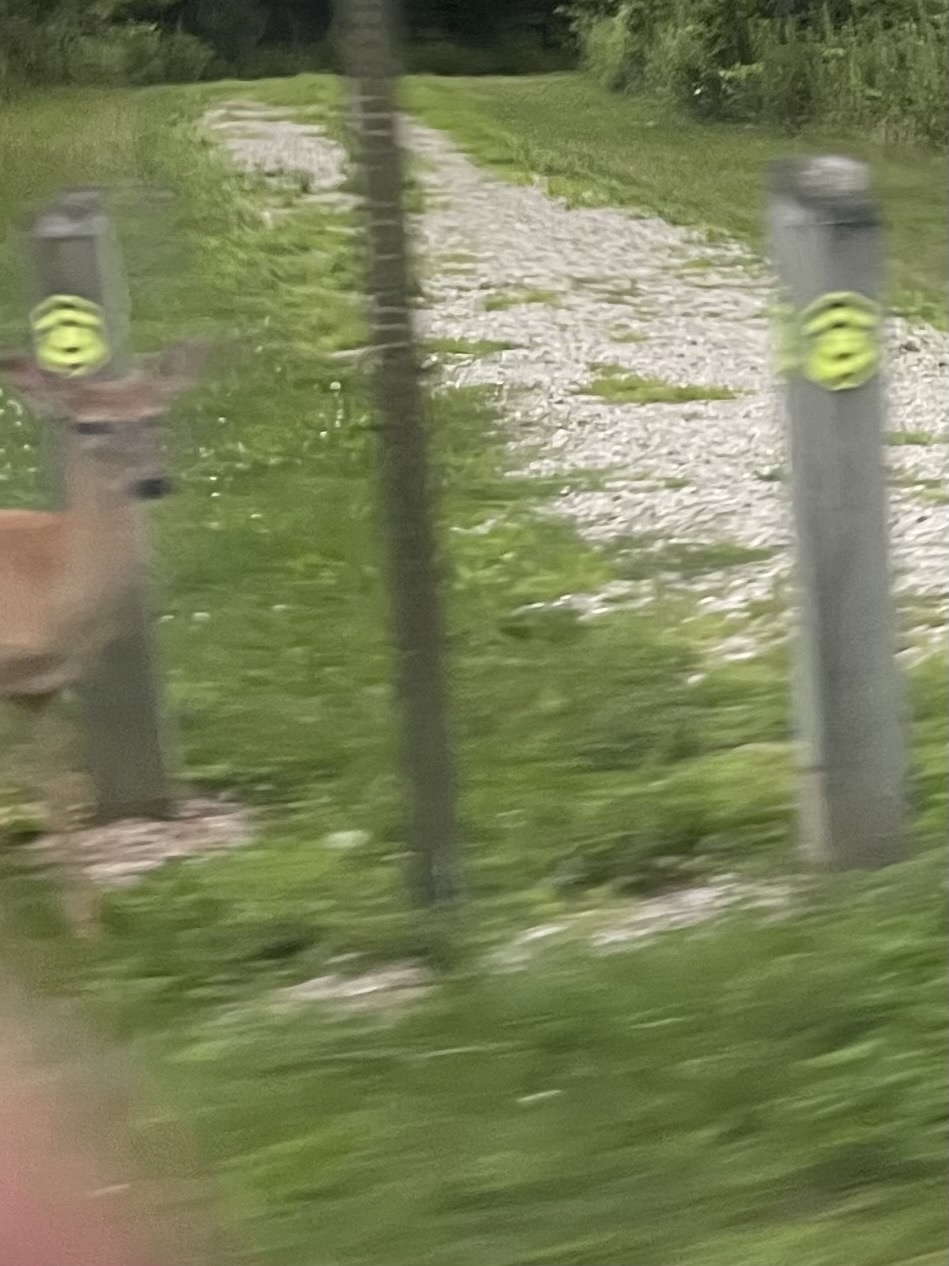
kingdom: Animalia
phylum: Chordata
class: Mammalia
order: Artiodactyla
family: Cervidae
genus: Odocoileus
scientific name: Odocoileus virginianus
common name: White-tailed deer
